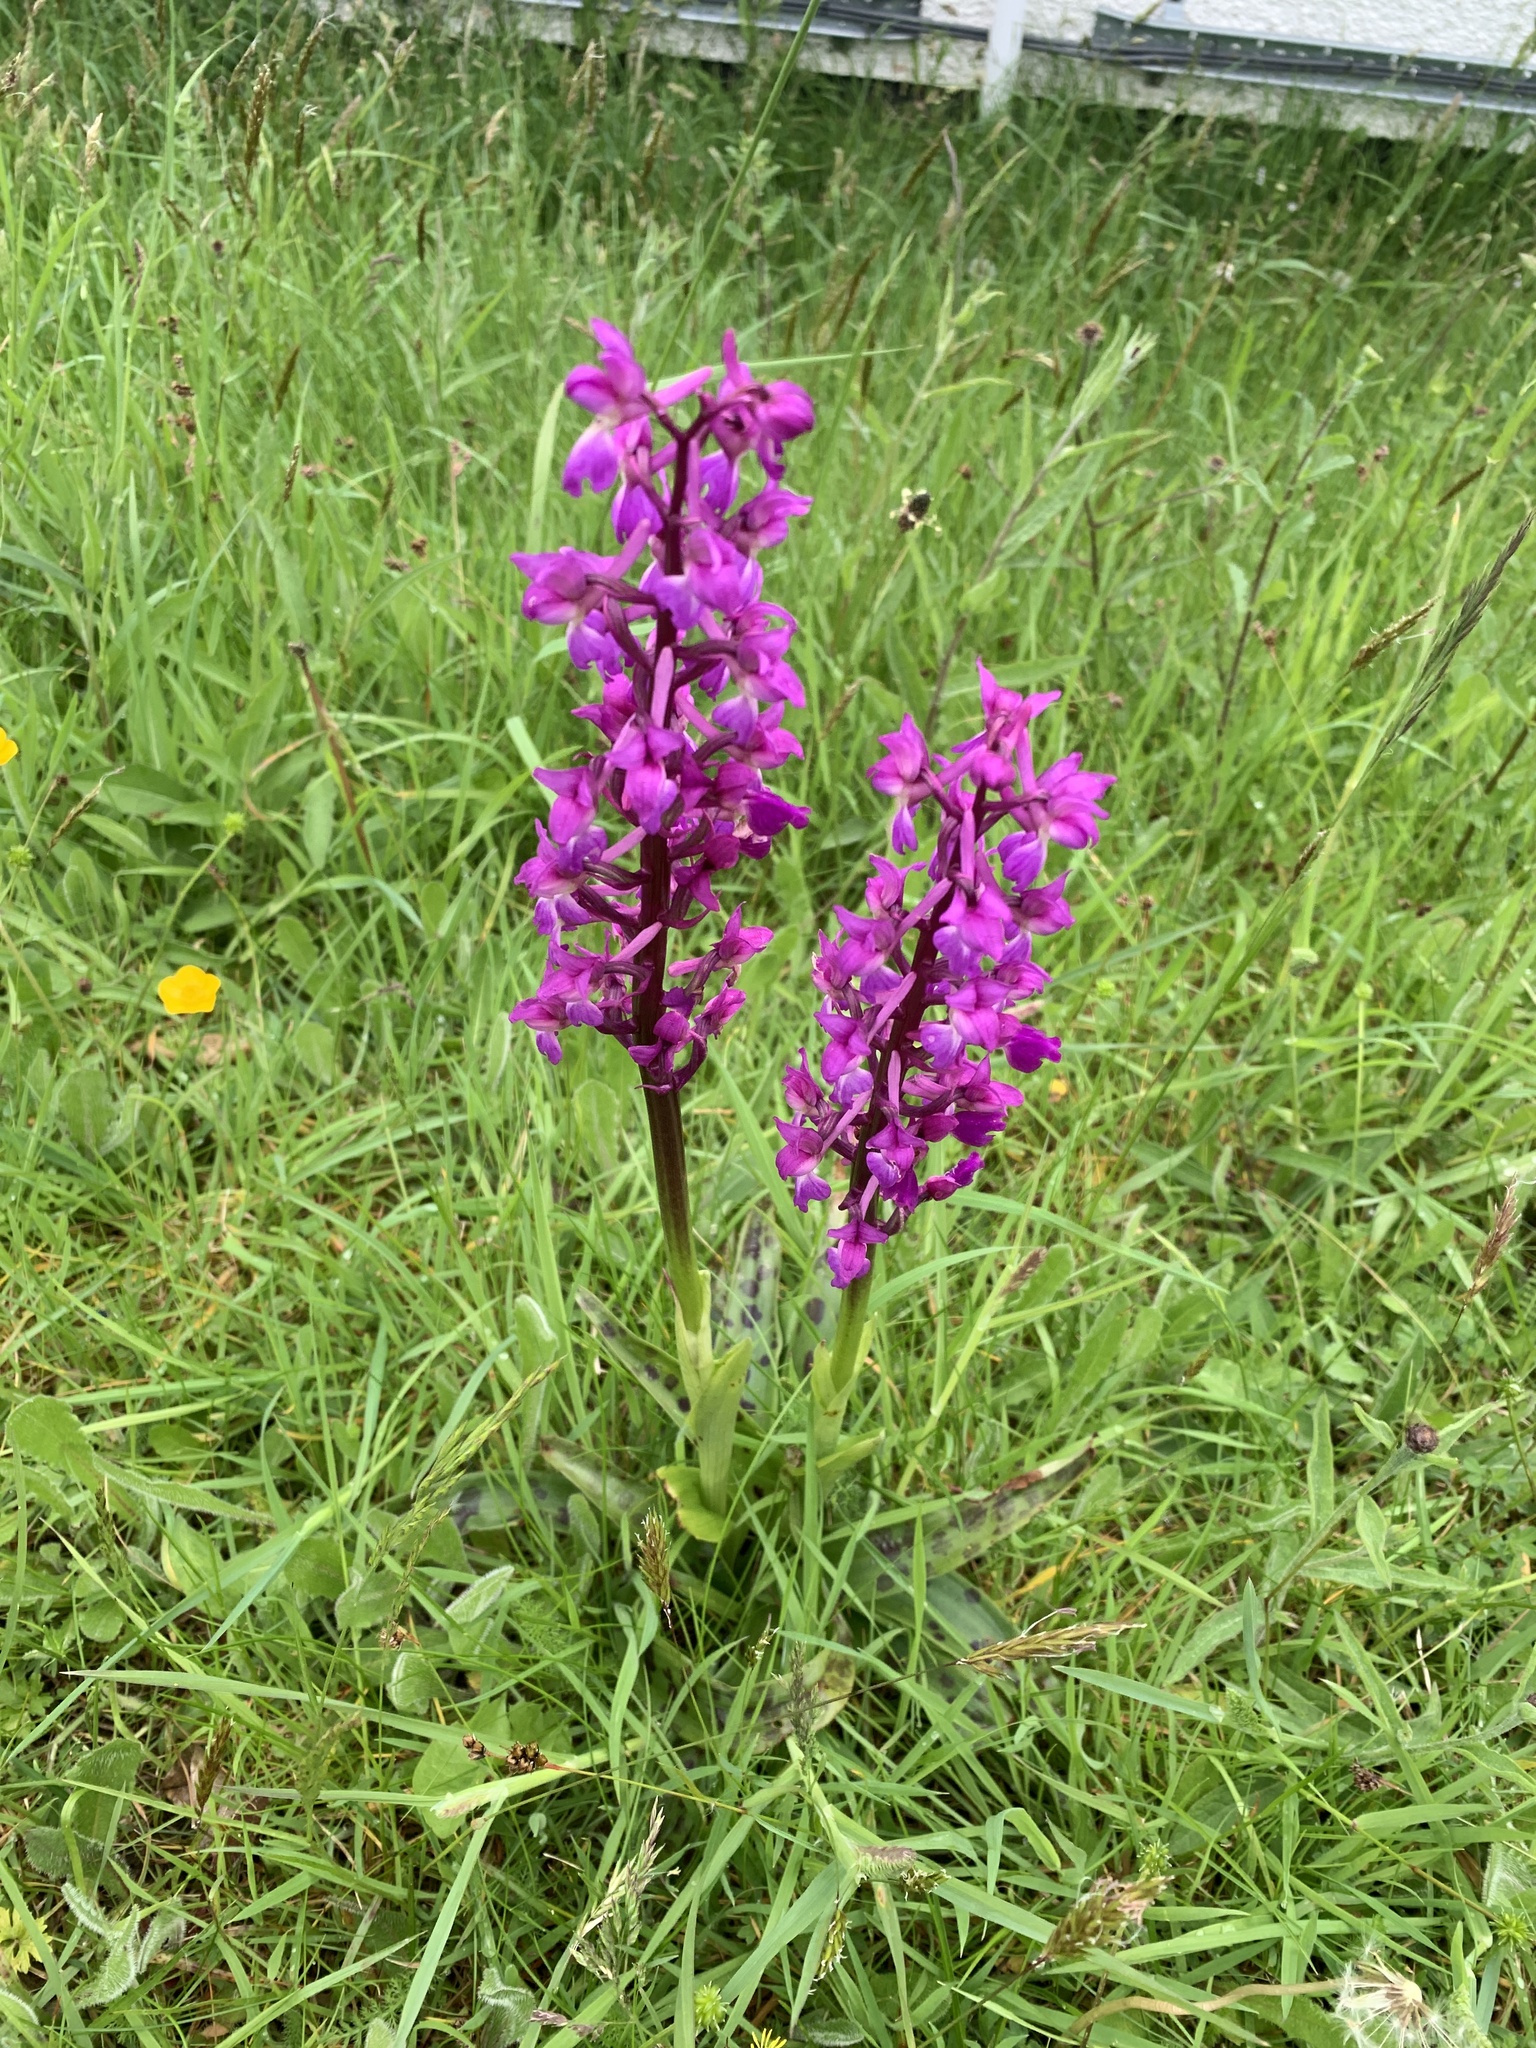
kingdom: Plantae
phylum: Tracheophyta
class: Liliopsida
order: Asparagales
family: Orchidaceae
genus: Orchis
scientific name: Orchis mascula
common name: Early-purple orchid
